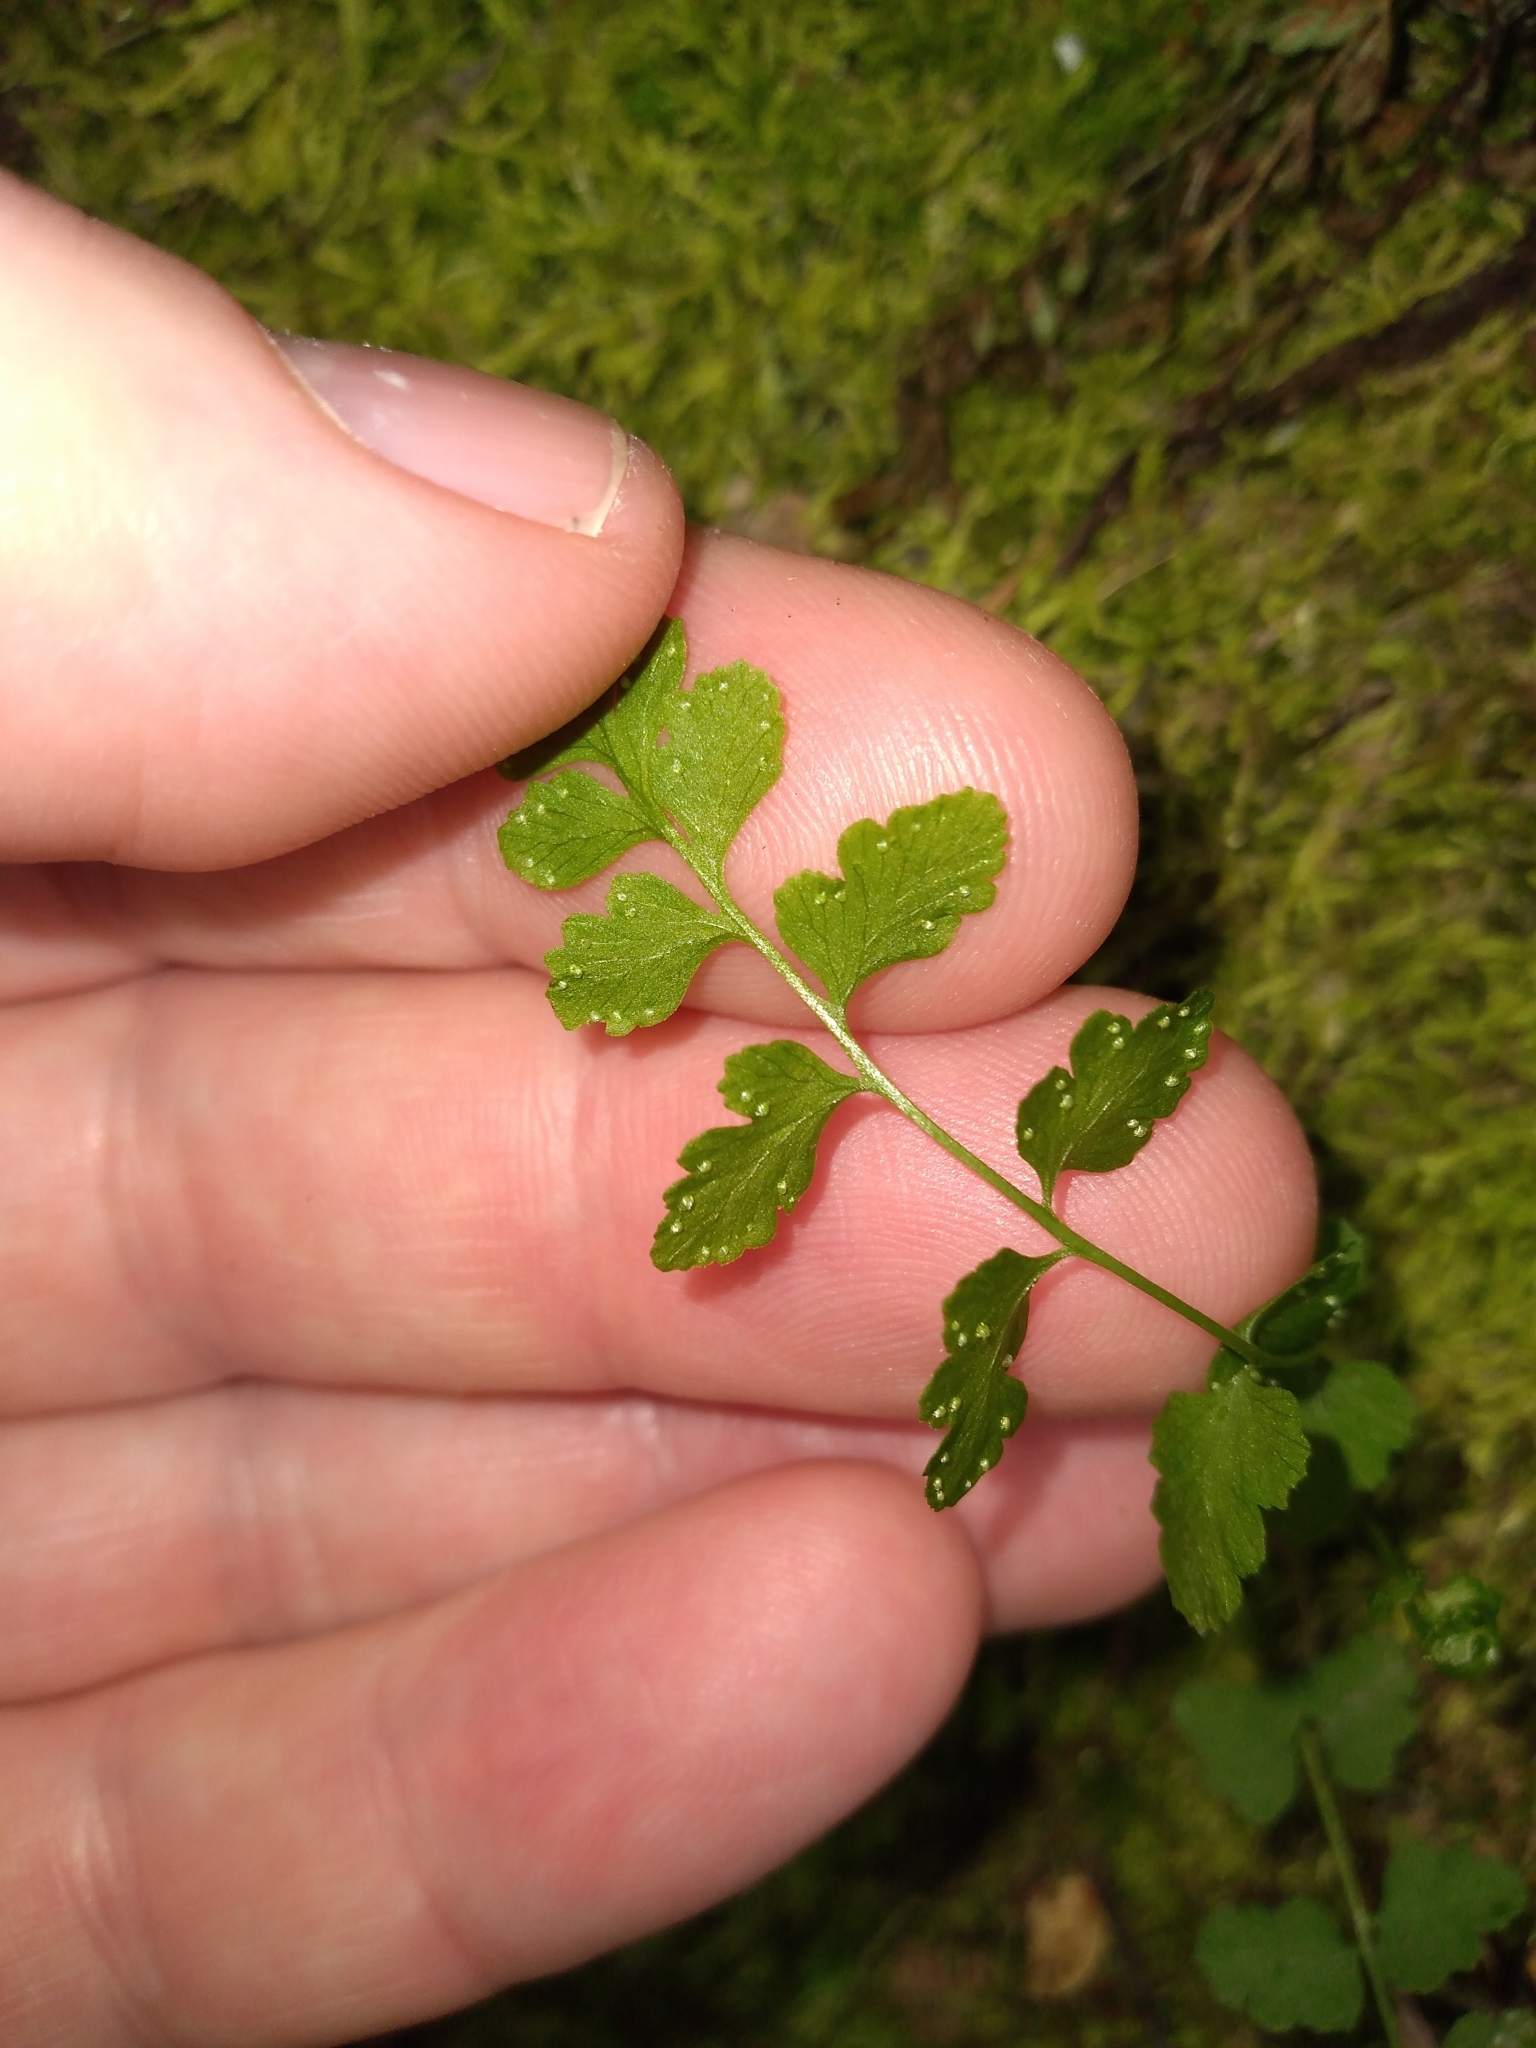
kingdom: Plantae
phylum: Tracheophyta
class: Polypodiopsida
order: Polypodiales
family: Cystopteridaceae
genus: Cystopteris
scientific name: Cystopteris tasmanica
